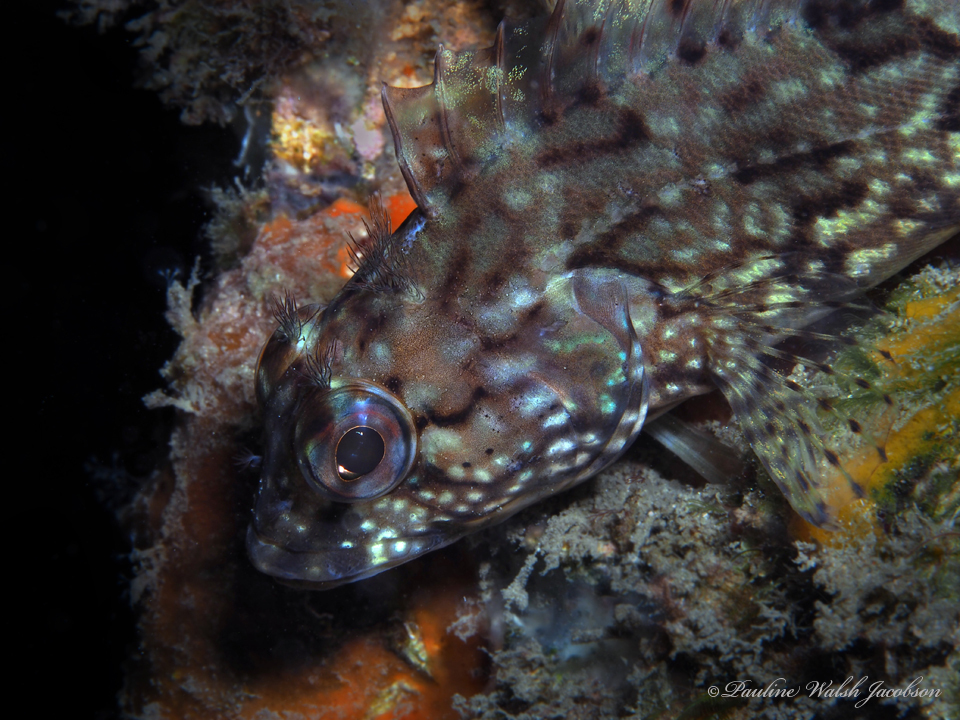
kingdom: Animalia
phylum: Chordata
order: Perciformes
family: Labrisomidae
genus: Labrisomus
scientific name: Labrisomus conditus
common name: Masquerader hairy blenny
